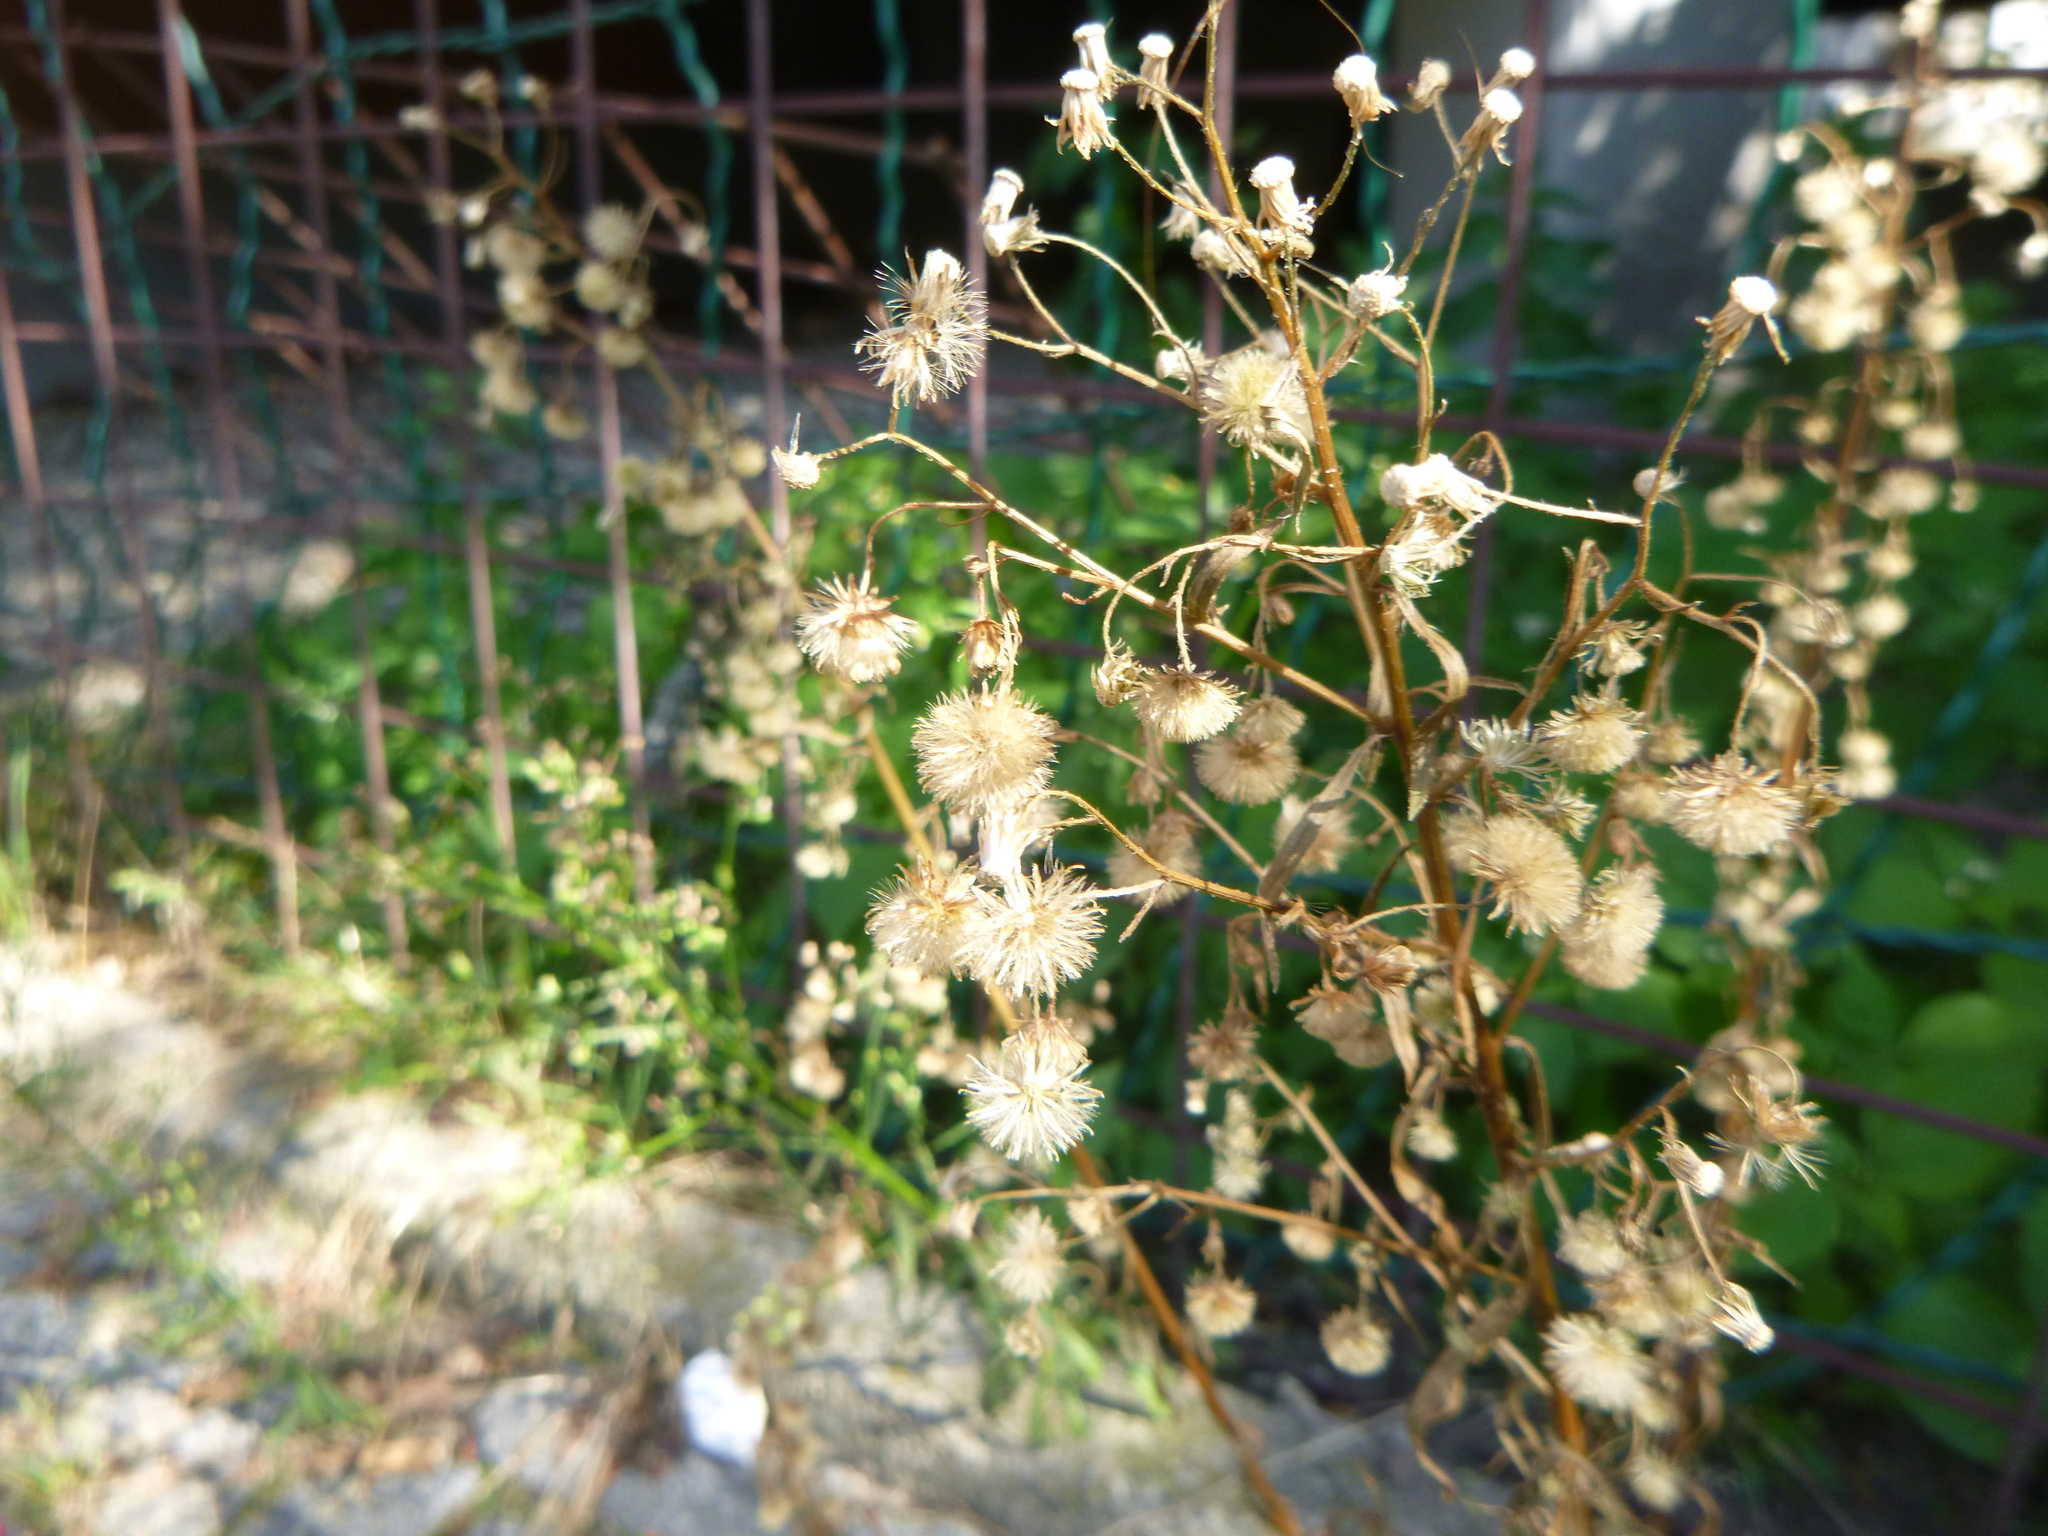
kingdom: Plantae
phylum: Tracheophyta
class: Magnoliopsida
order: Asterales
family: Asteraceae
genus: Erigeron
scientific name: Erigeron canadensis
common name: Canadian fleabane
